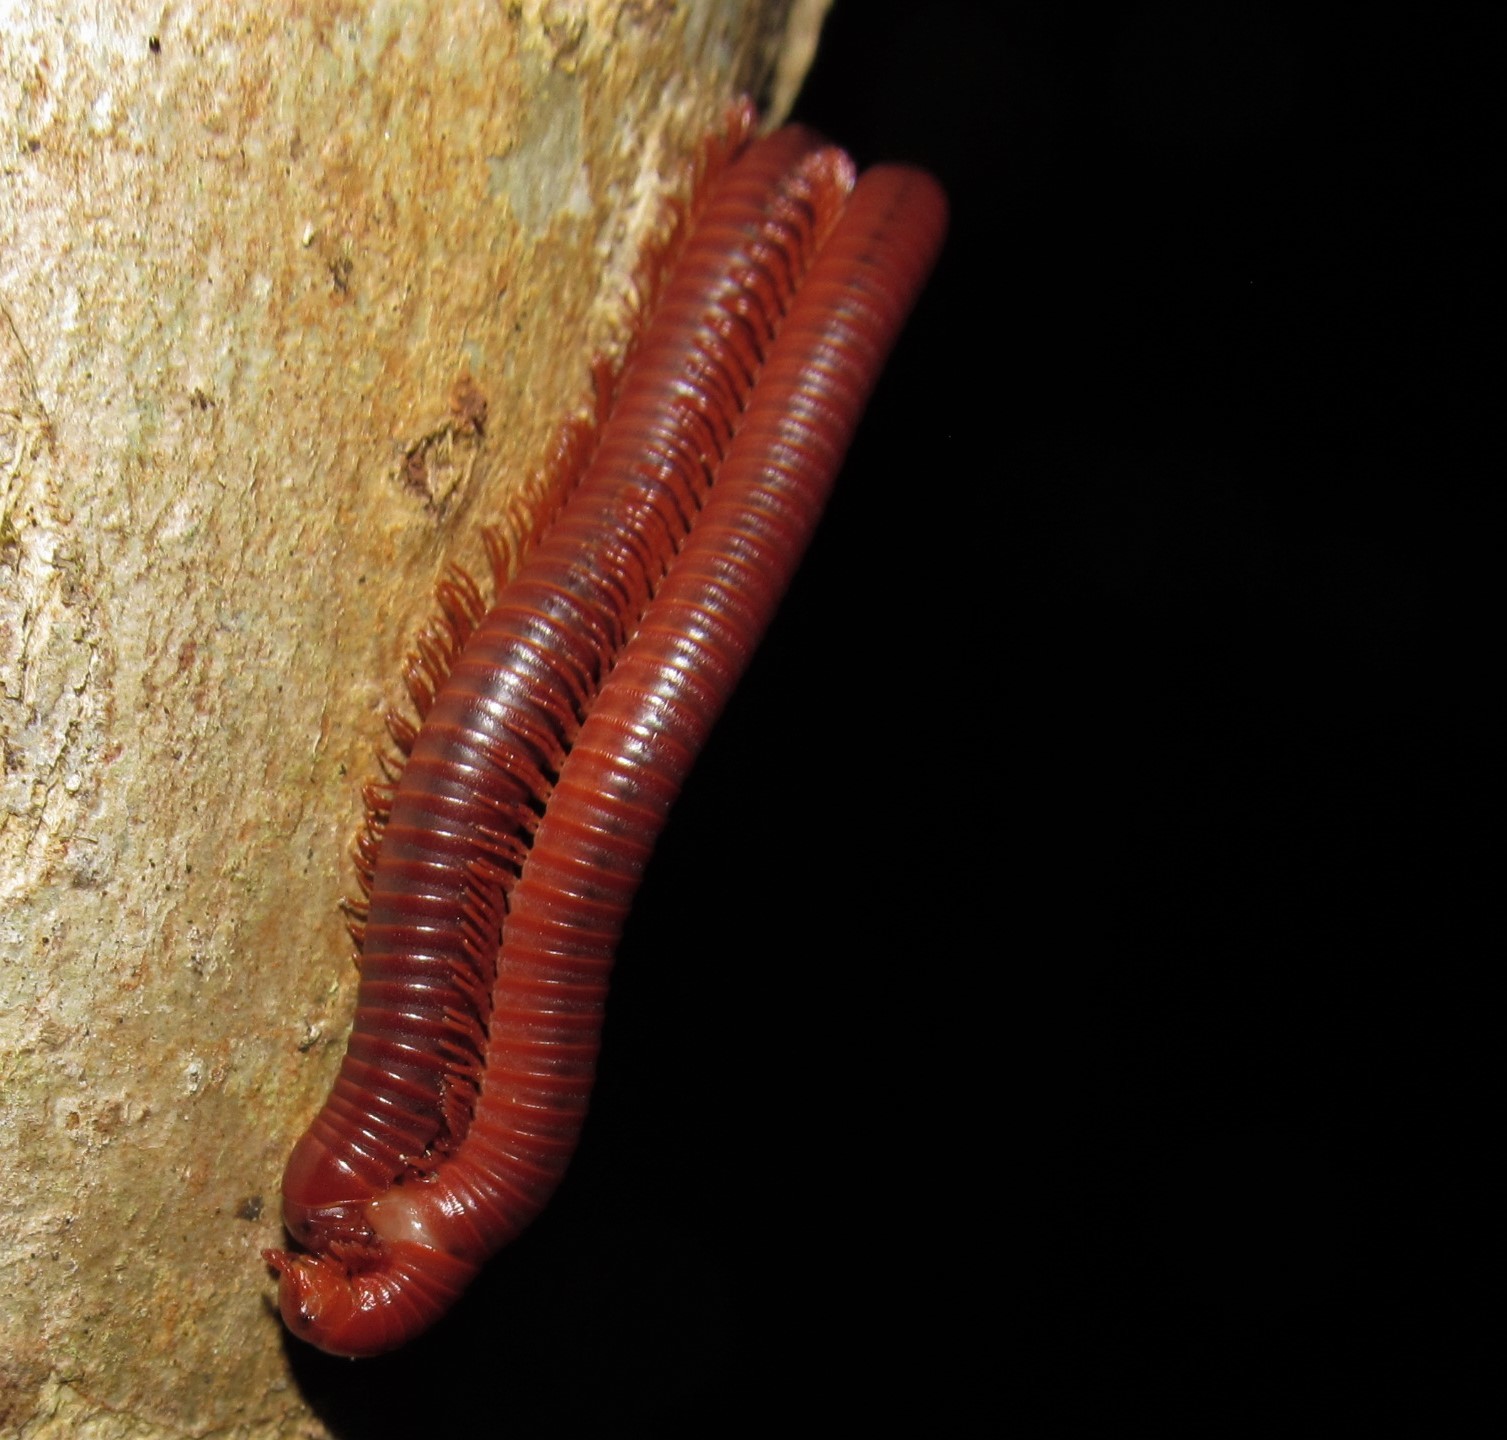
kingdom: Animalia
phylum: Arthropoda
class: Diplopoda
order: Spirobolida
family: Pachybolidae
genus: Trigoniulus
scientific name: Trigoniulus corallinus
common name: Millipede
